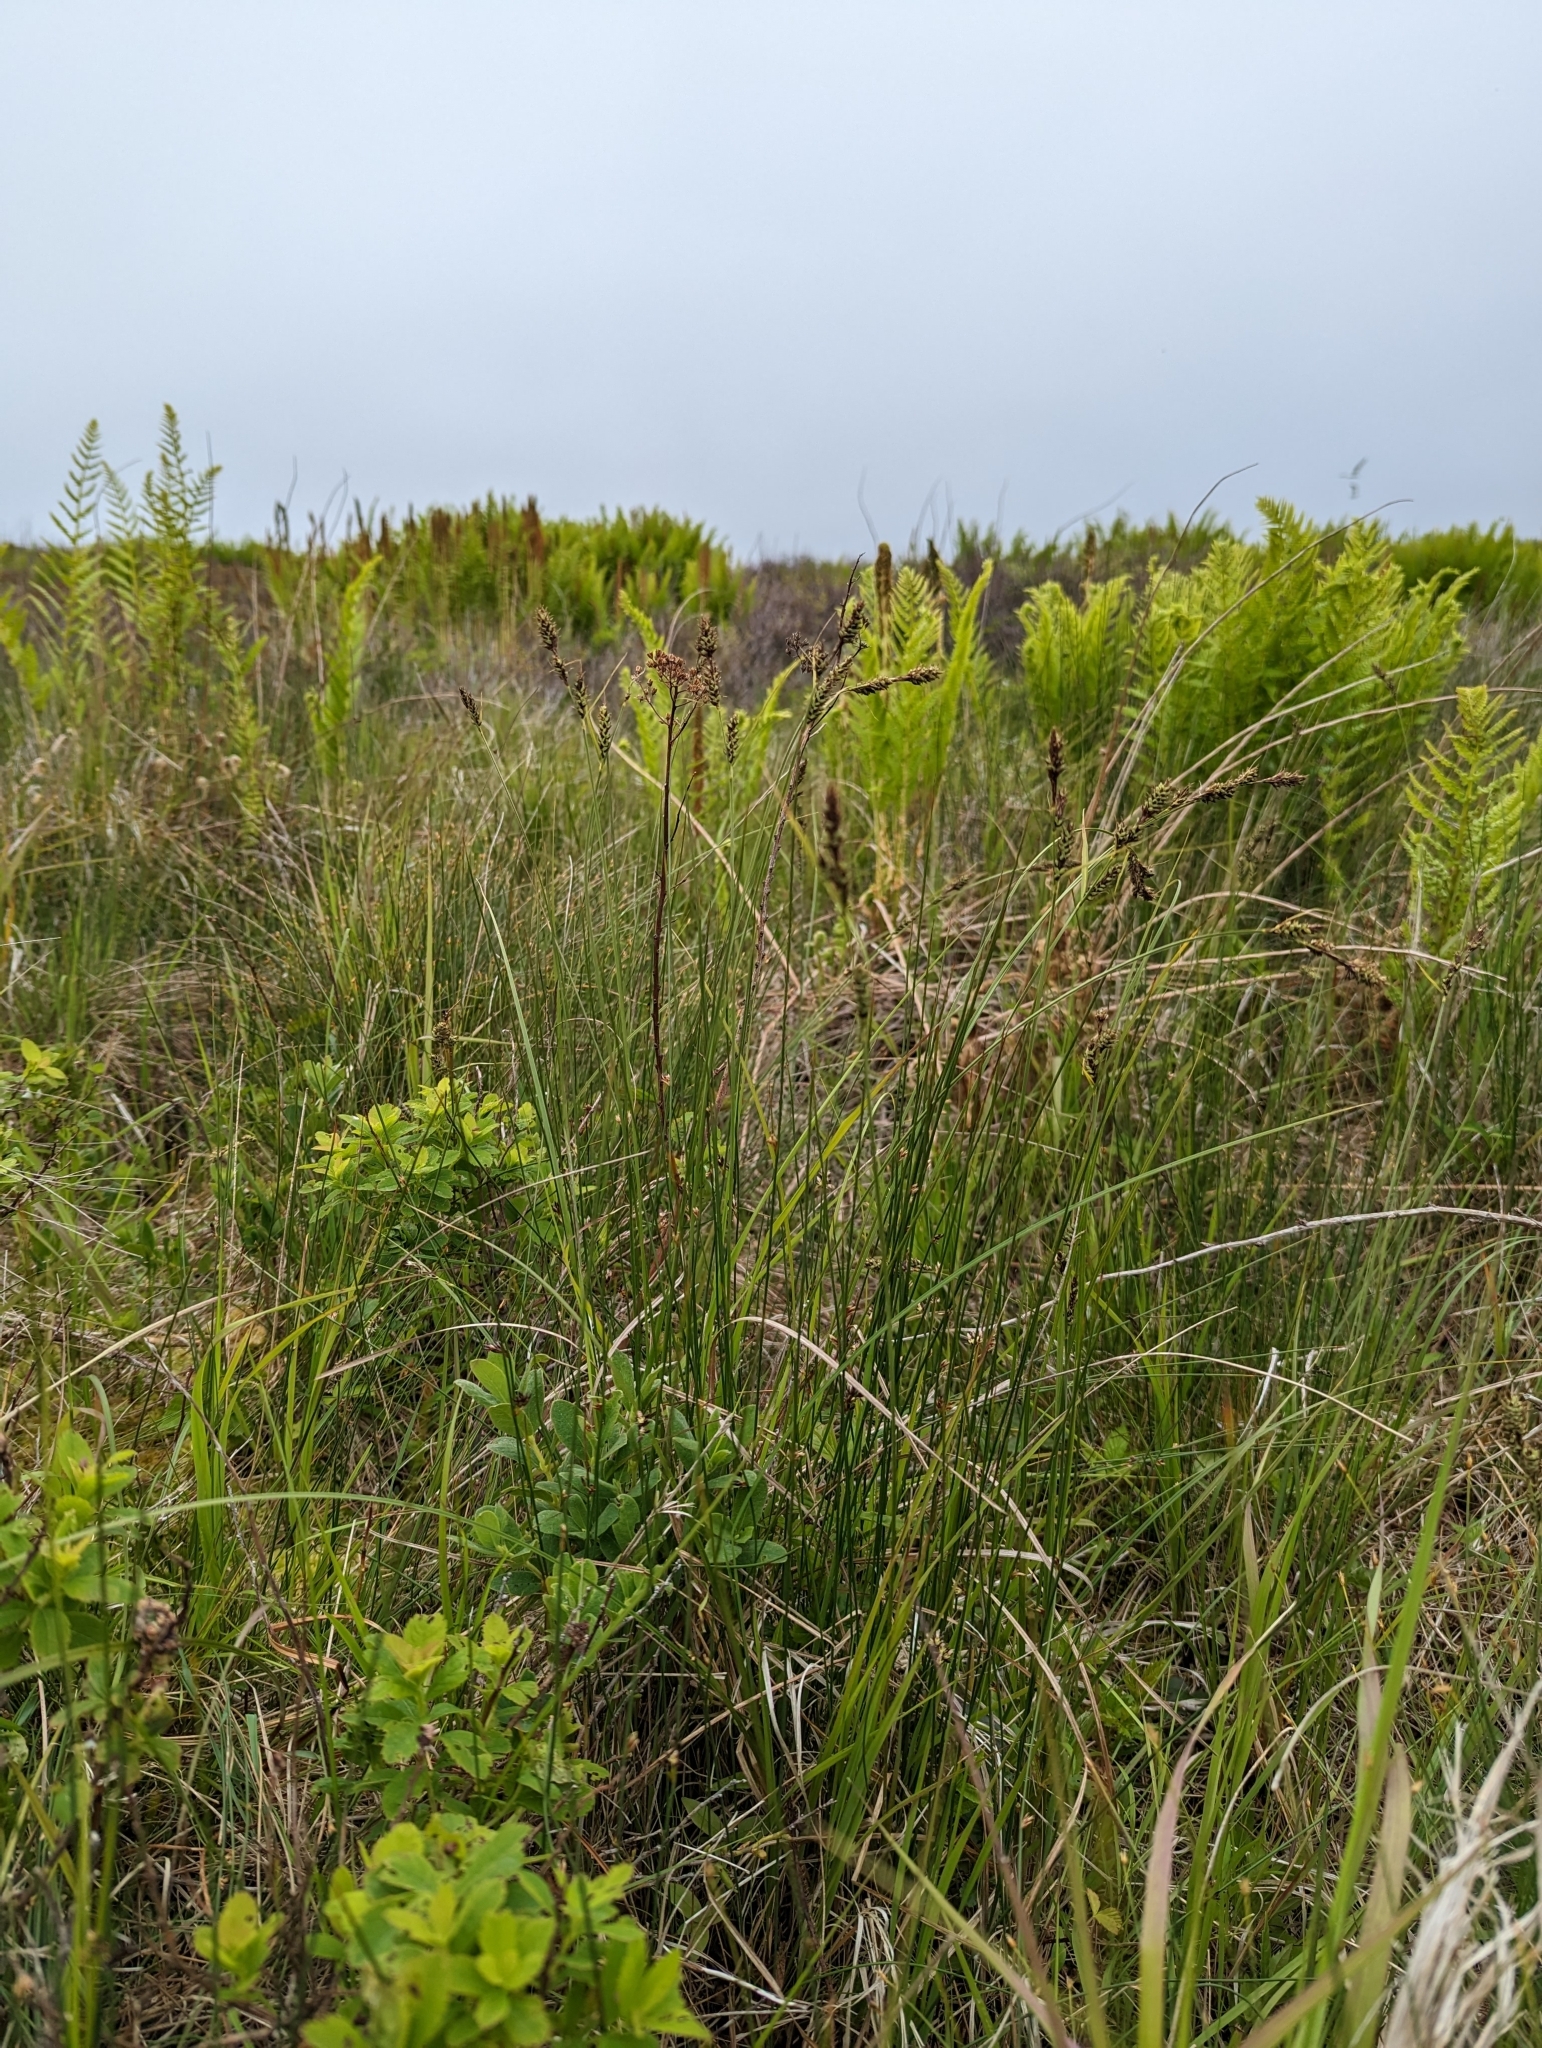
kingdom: Plantae
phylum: Tracheophyta
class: Liliopsida
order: Poales
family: Cyperaceae
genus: Carex
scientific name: Carex buxbaumii
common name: Club sedge
